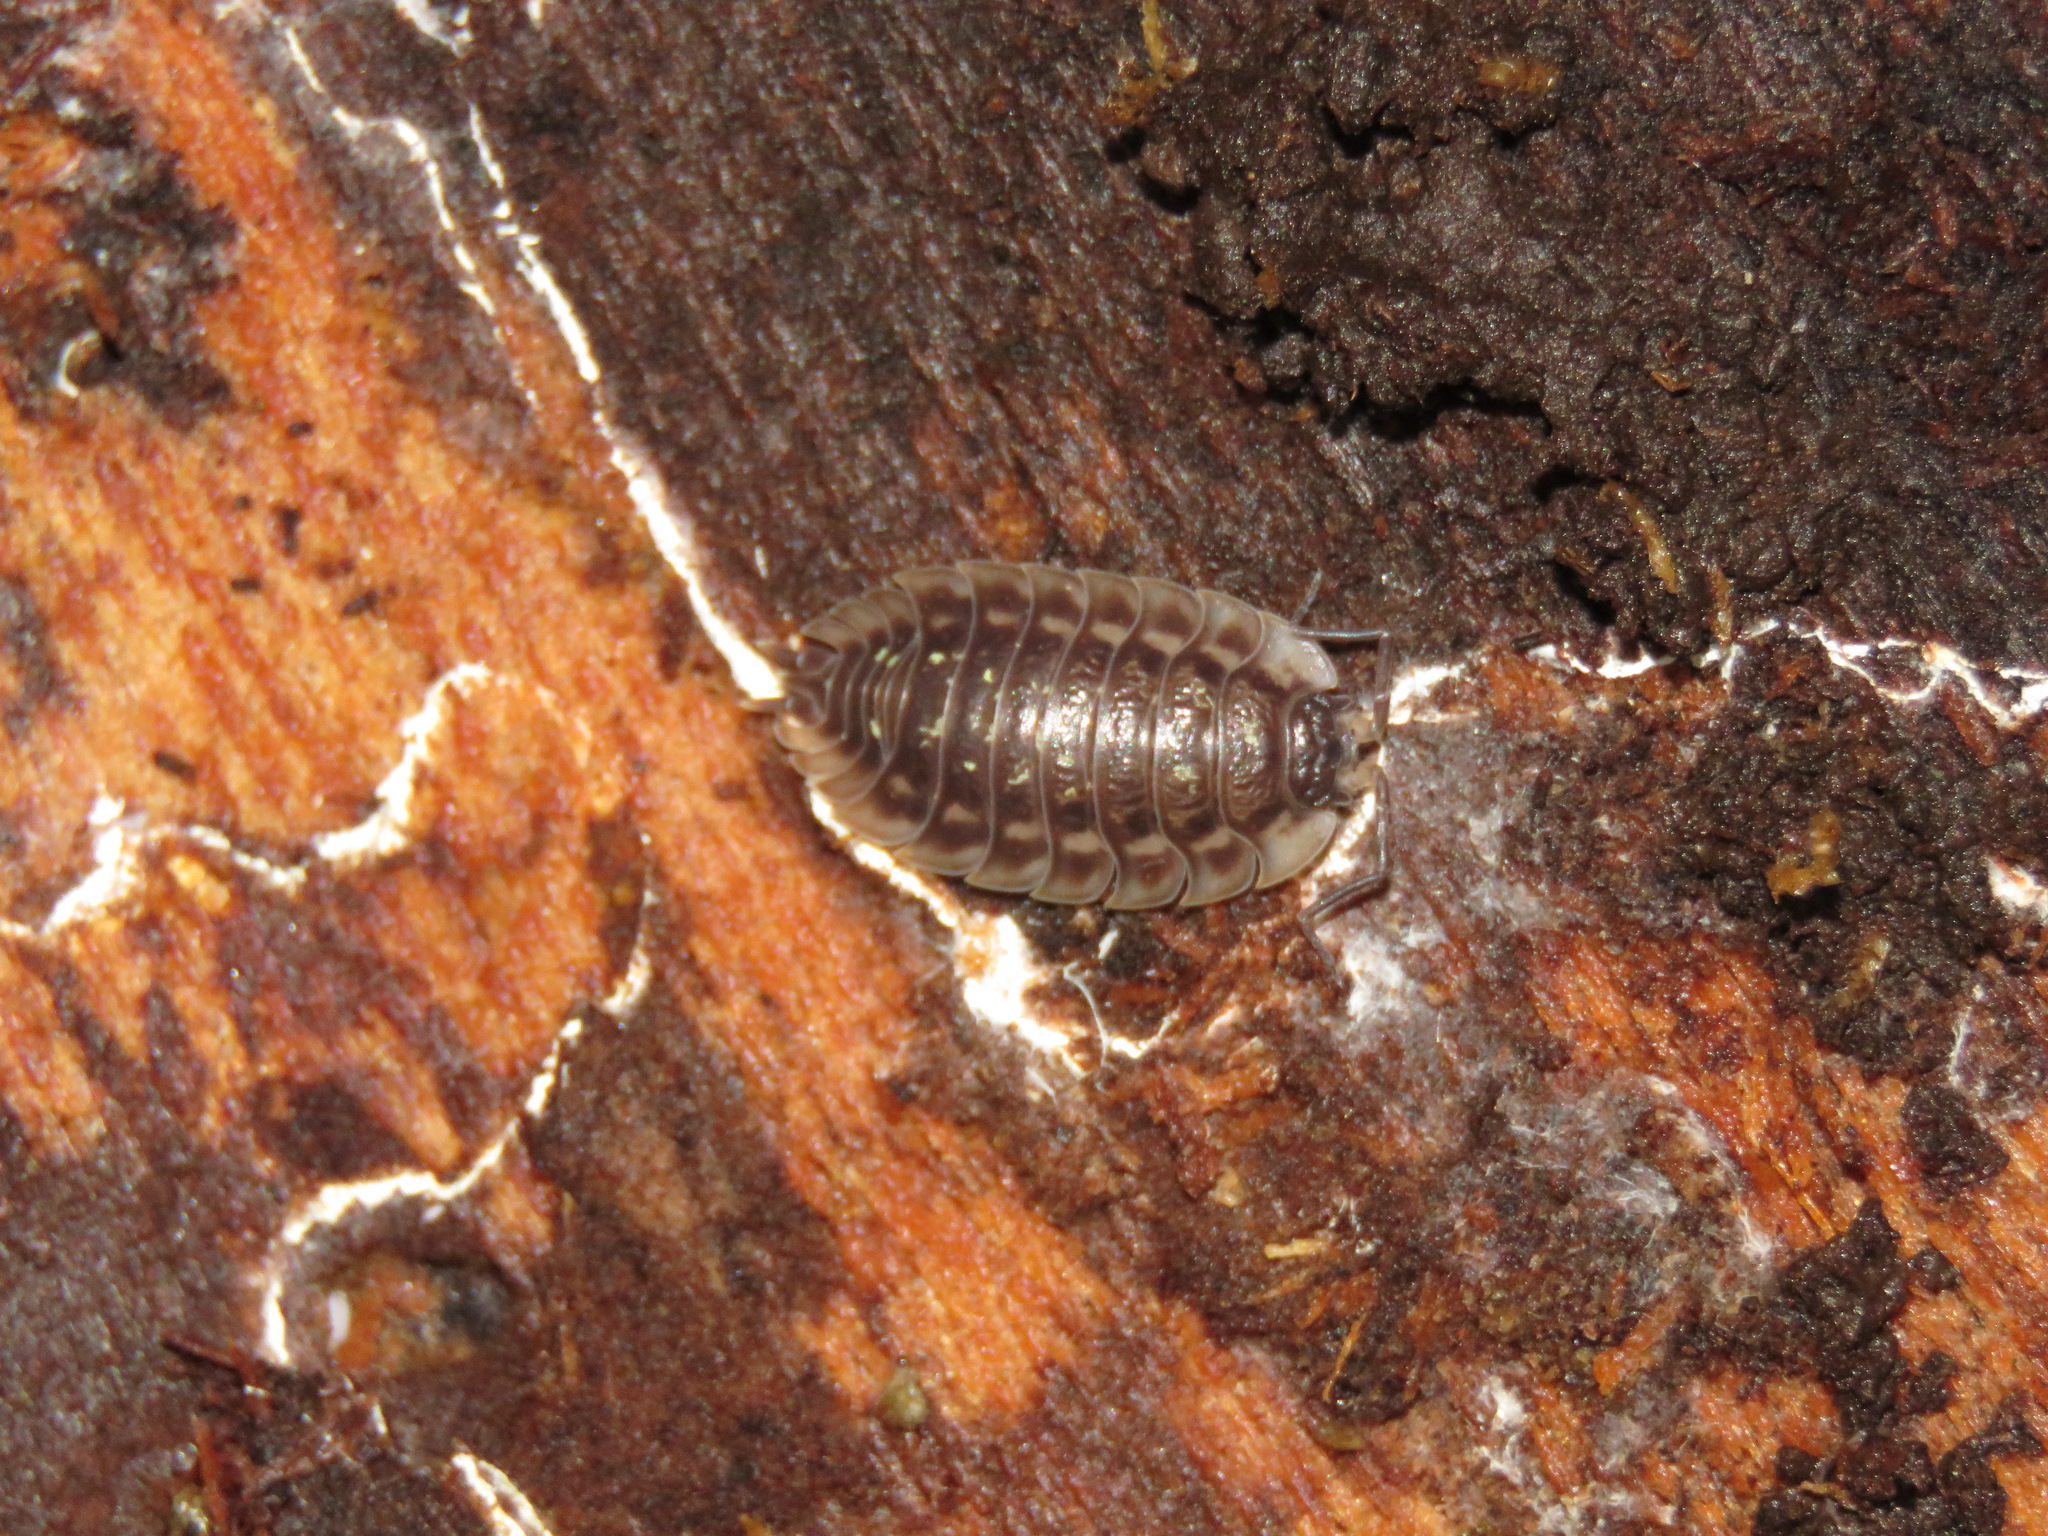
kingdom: Animalia
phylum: Arthropoda
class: Malacostraca
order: Isopoda
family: Oniscidae
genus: Oniscus
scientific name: Oniscus asellus
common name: Common shiny woodlouse
